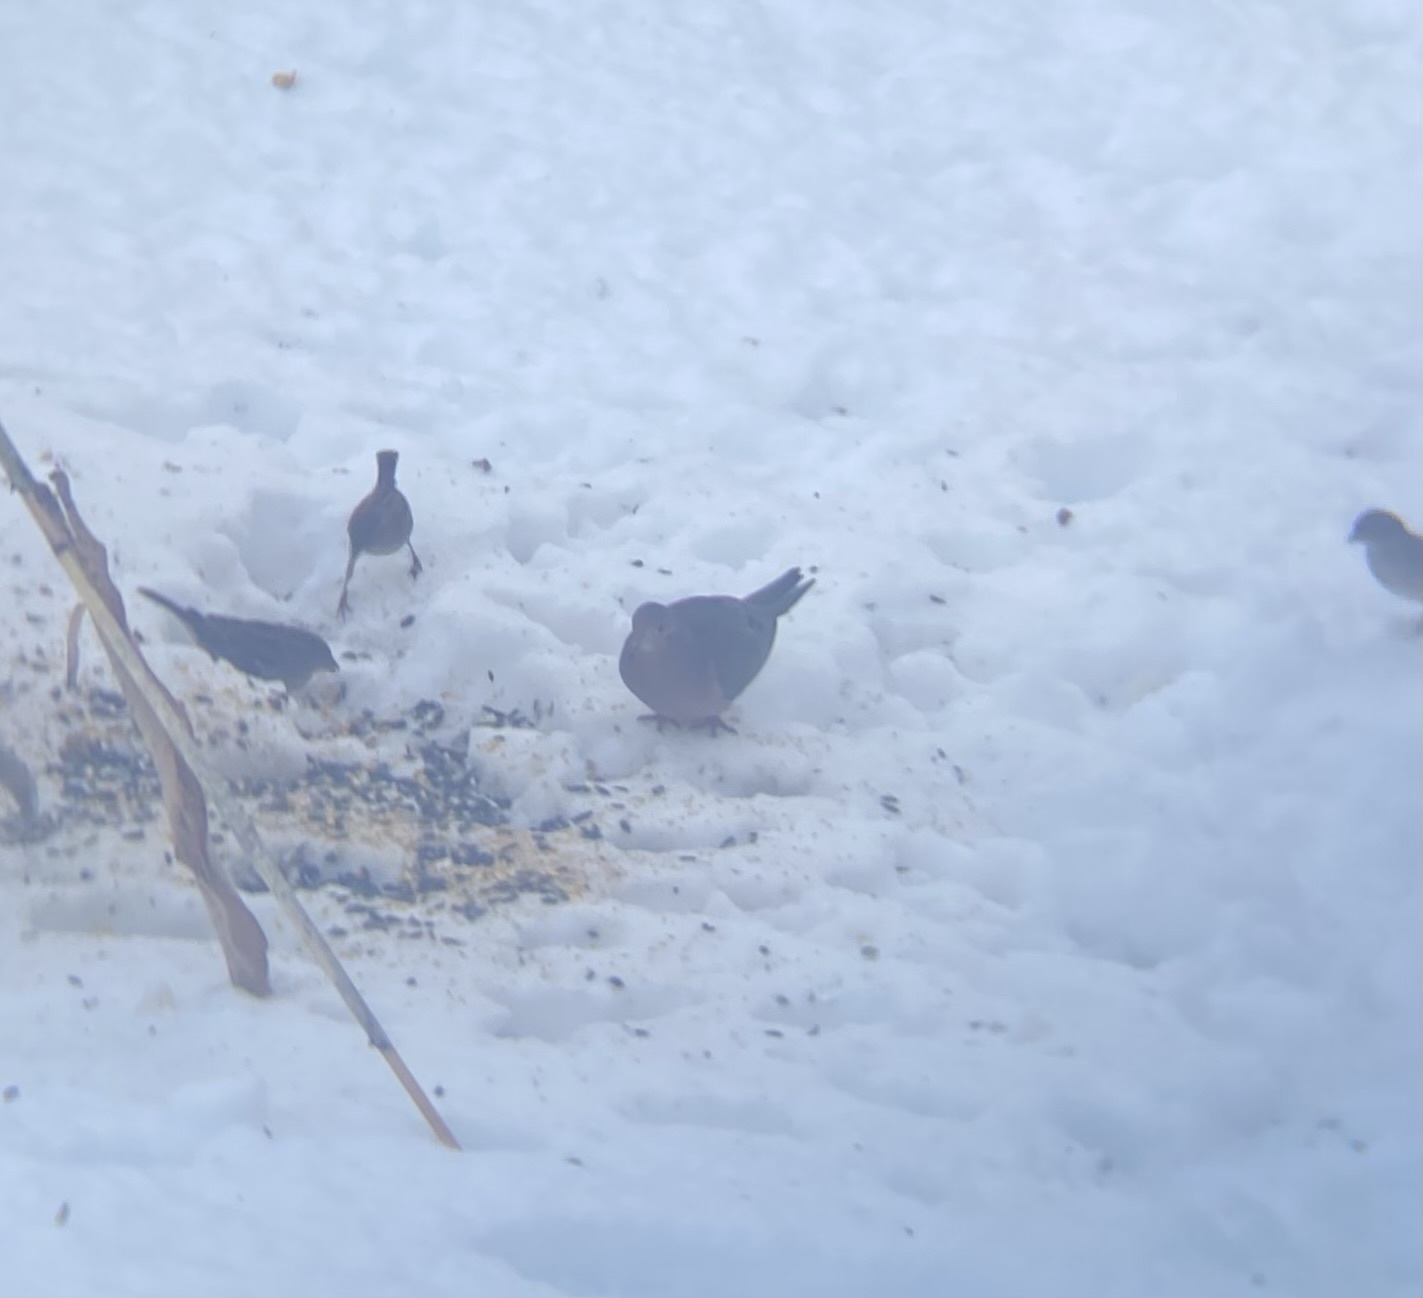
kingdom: Animalia
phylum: Chordata
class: Aves
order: Columbiformes
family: Columbidae
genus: Zenaida
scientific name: Zenaida macroura
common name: Mourning dove
